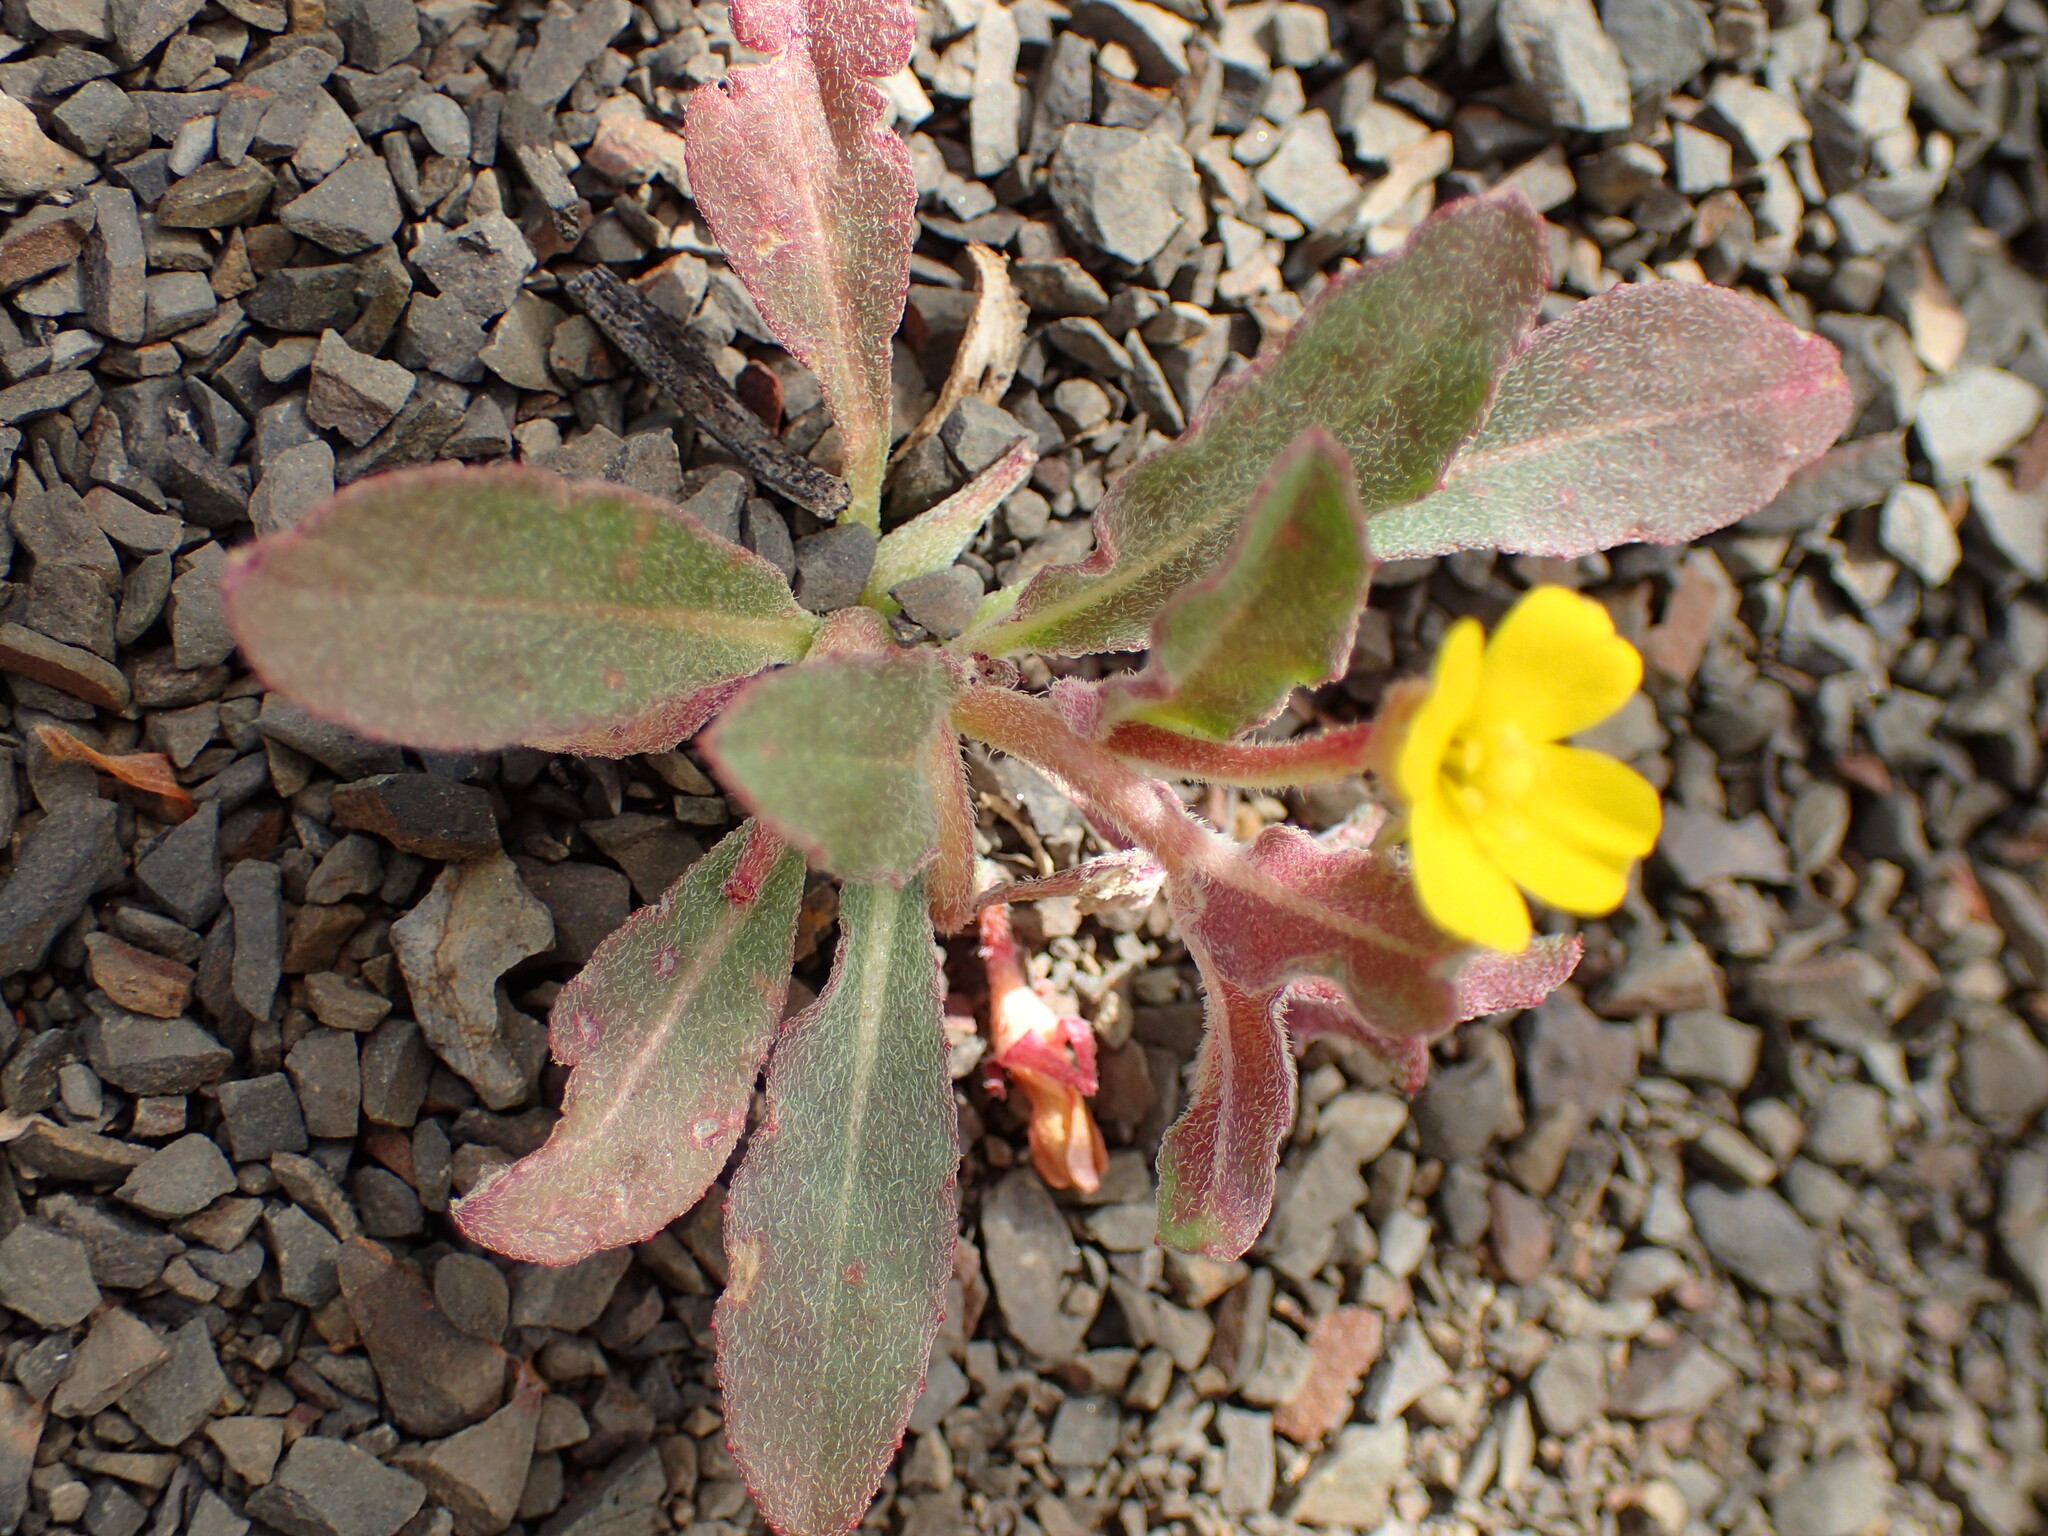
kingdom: Plantae
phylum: Tracheophyta
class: Magnoliopsida
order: Myrtales
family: Onagraceae
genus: Camissoniopsis
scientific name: Camissoniopsis micrantha
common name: Miniature suncup
